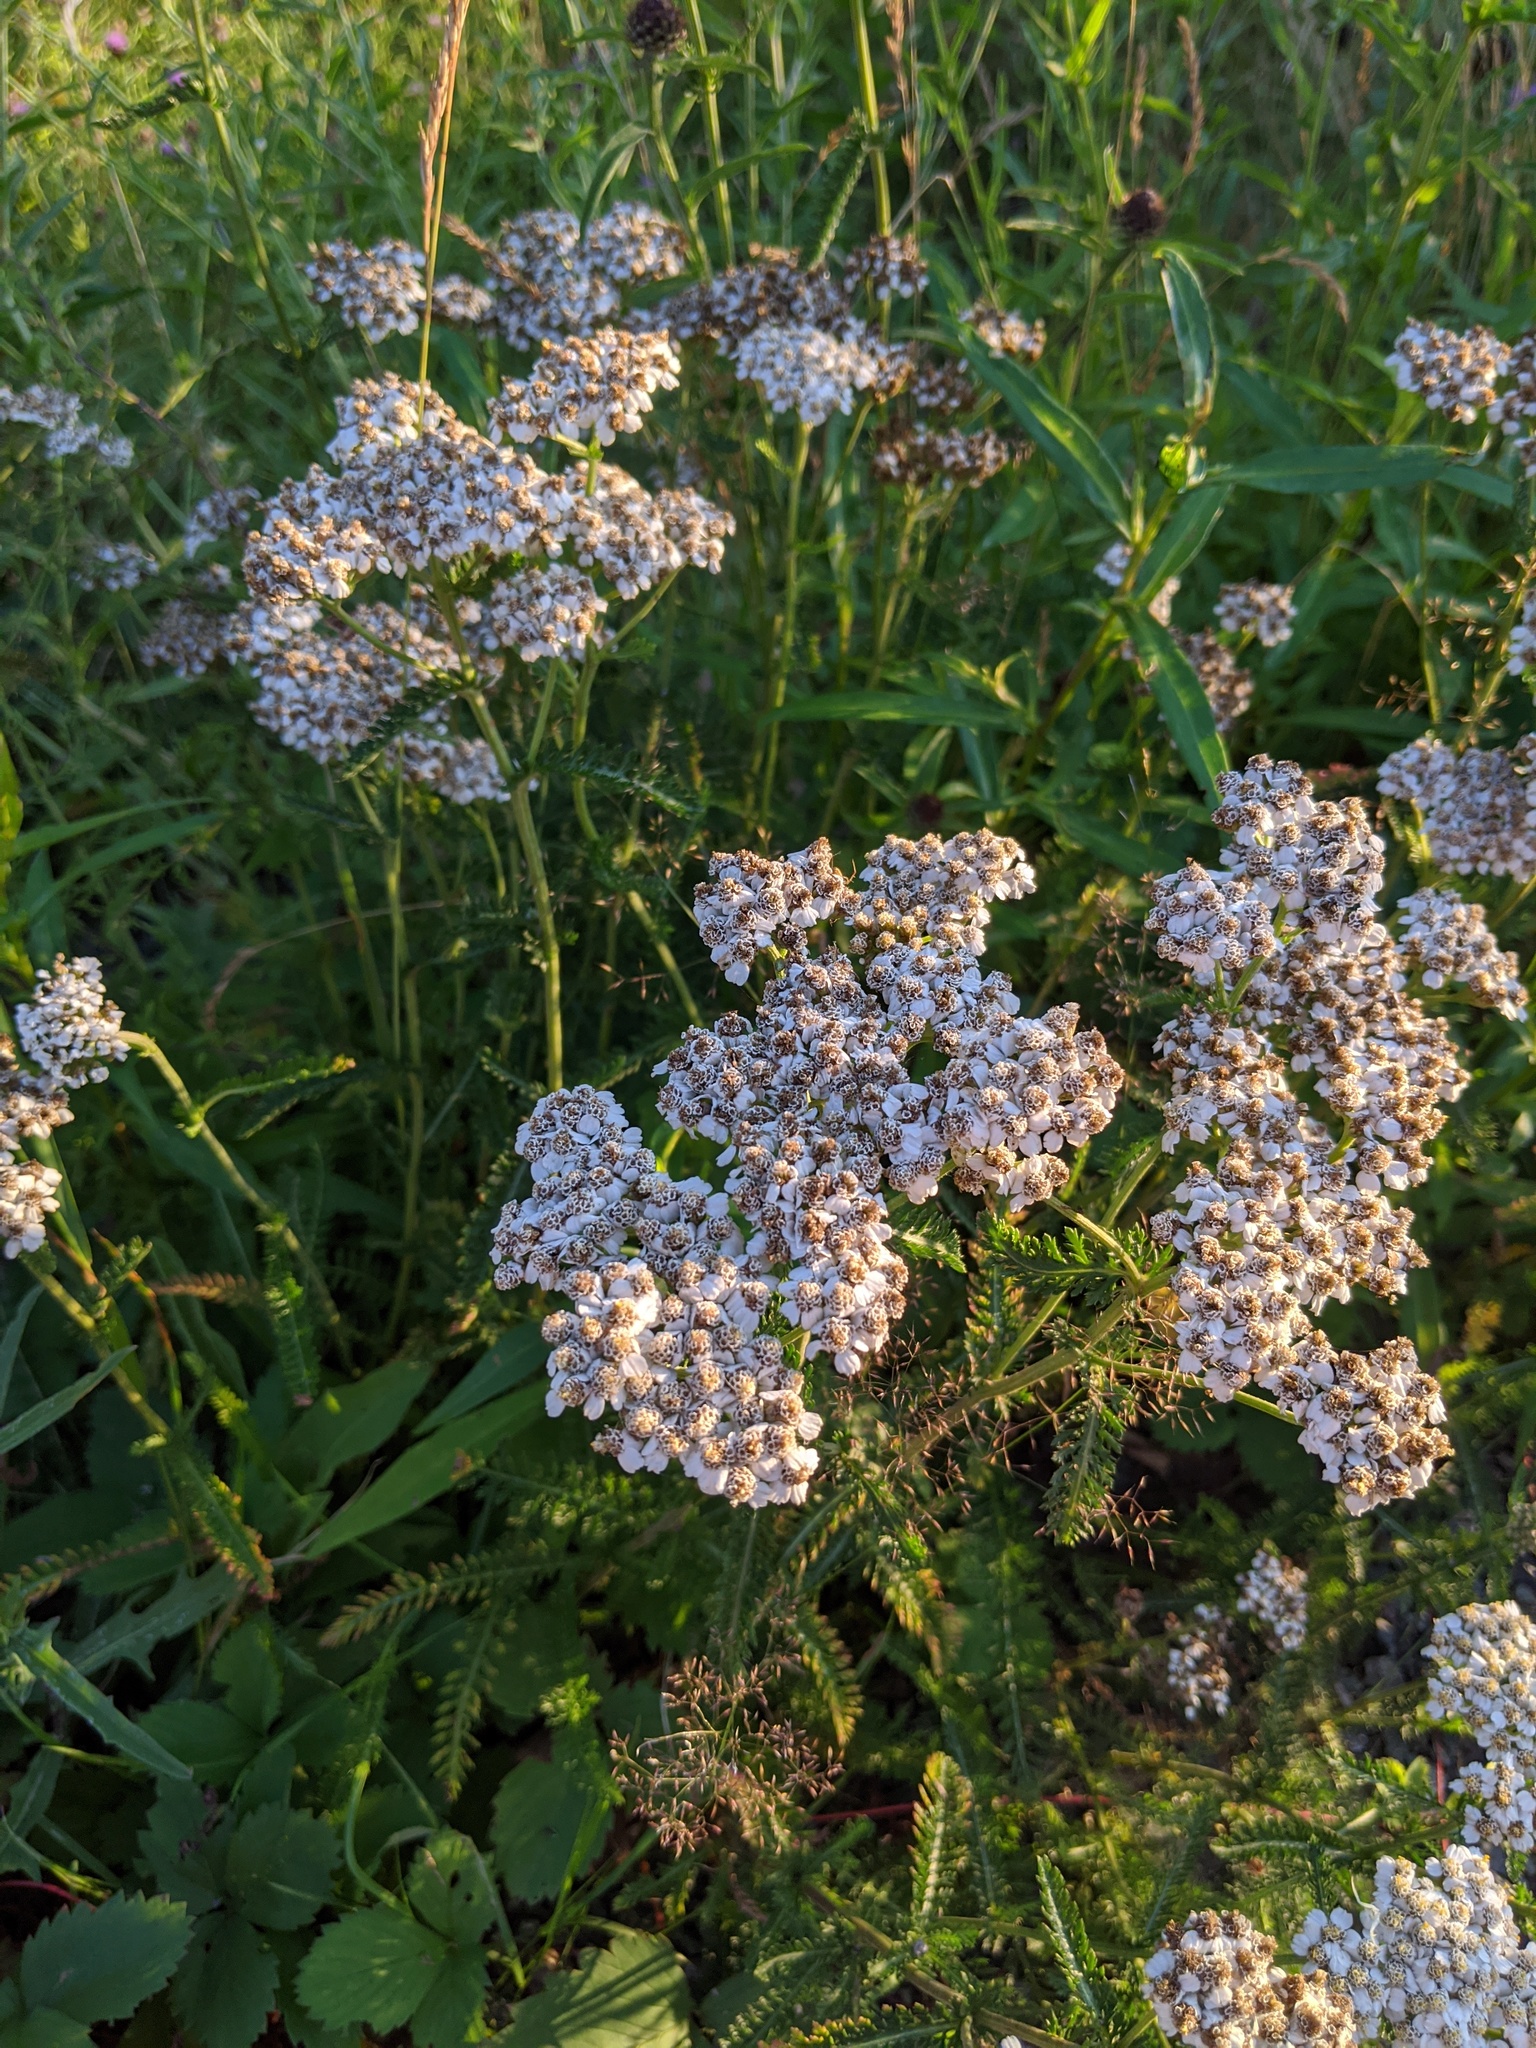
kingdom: Plantae
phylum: Tracheophyta
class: Magnoliopsida
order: Asterales
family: Asteraceae
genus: Achillea
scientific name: Achillea millefolium
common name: Yarrow
